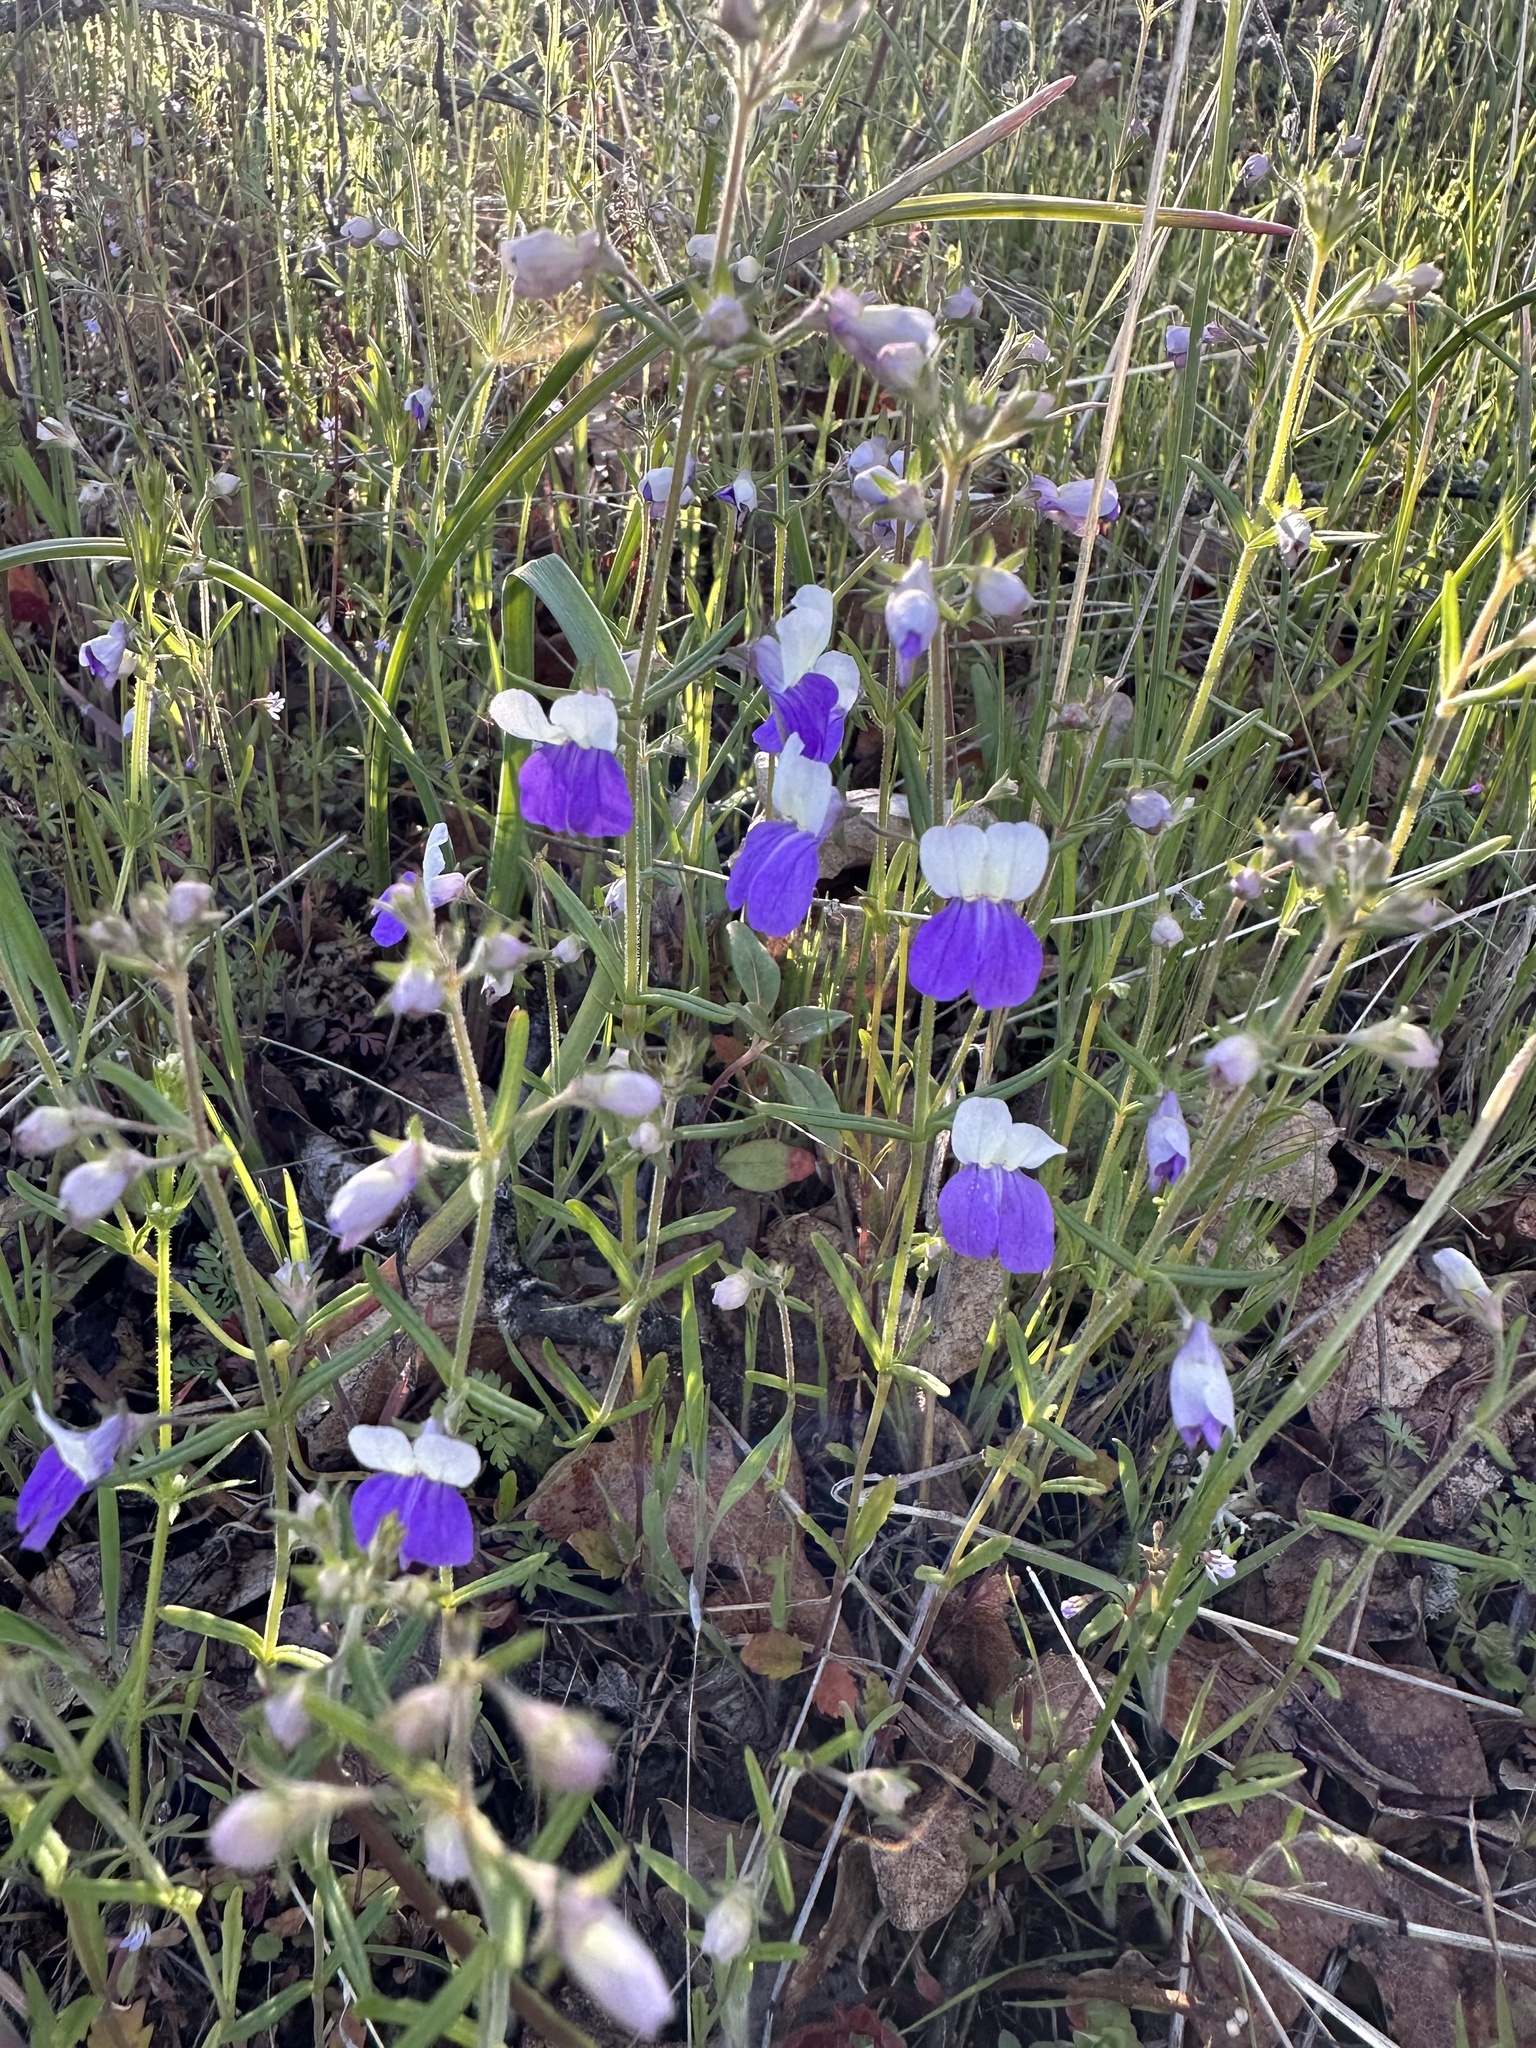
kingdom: Plantae
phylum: Tracheophyta
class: Magnoliopsida
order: Lamiales
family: Plantaginaceae
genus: Collinsia
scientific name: Collinsia linearis
